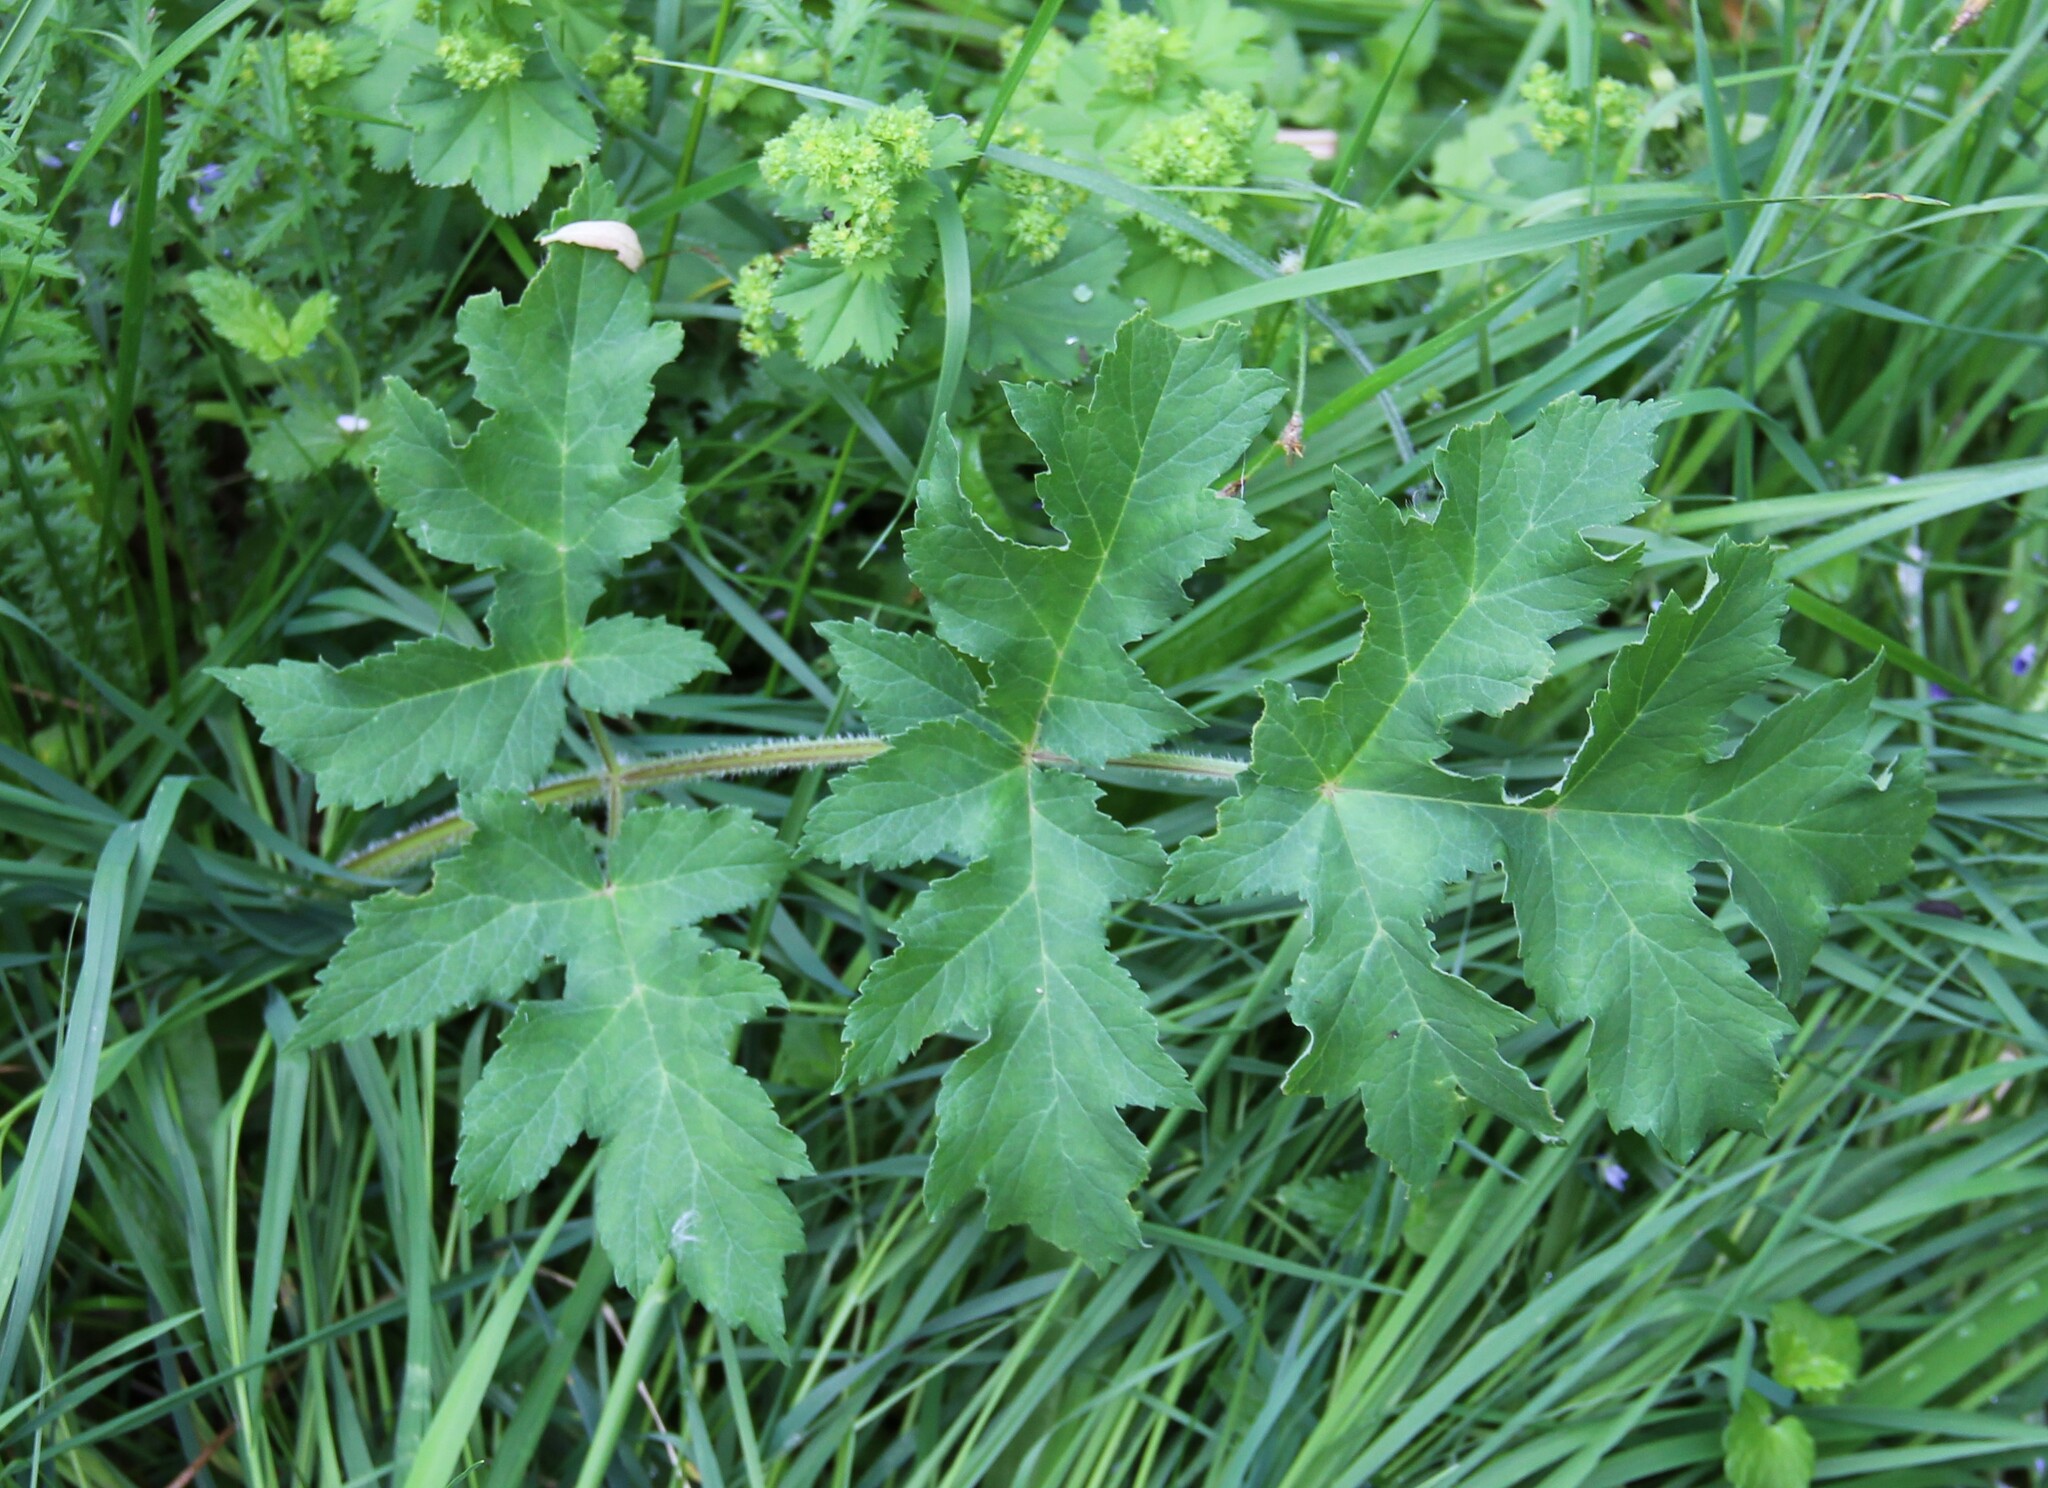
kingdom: Plantae
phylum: Tracheophyta
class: Magnoliopsida
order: Apiales
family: Apiaceae
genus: Heracleum
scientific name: Heracleum sphondylium
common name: Hogweed
